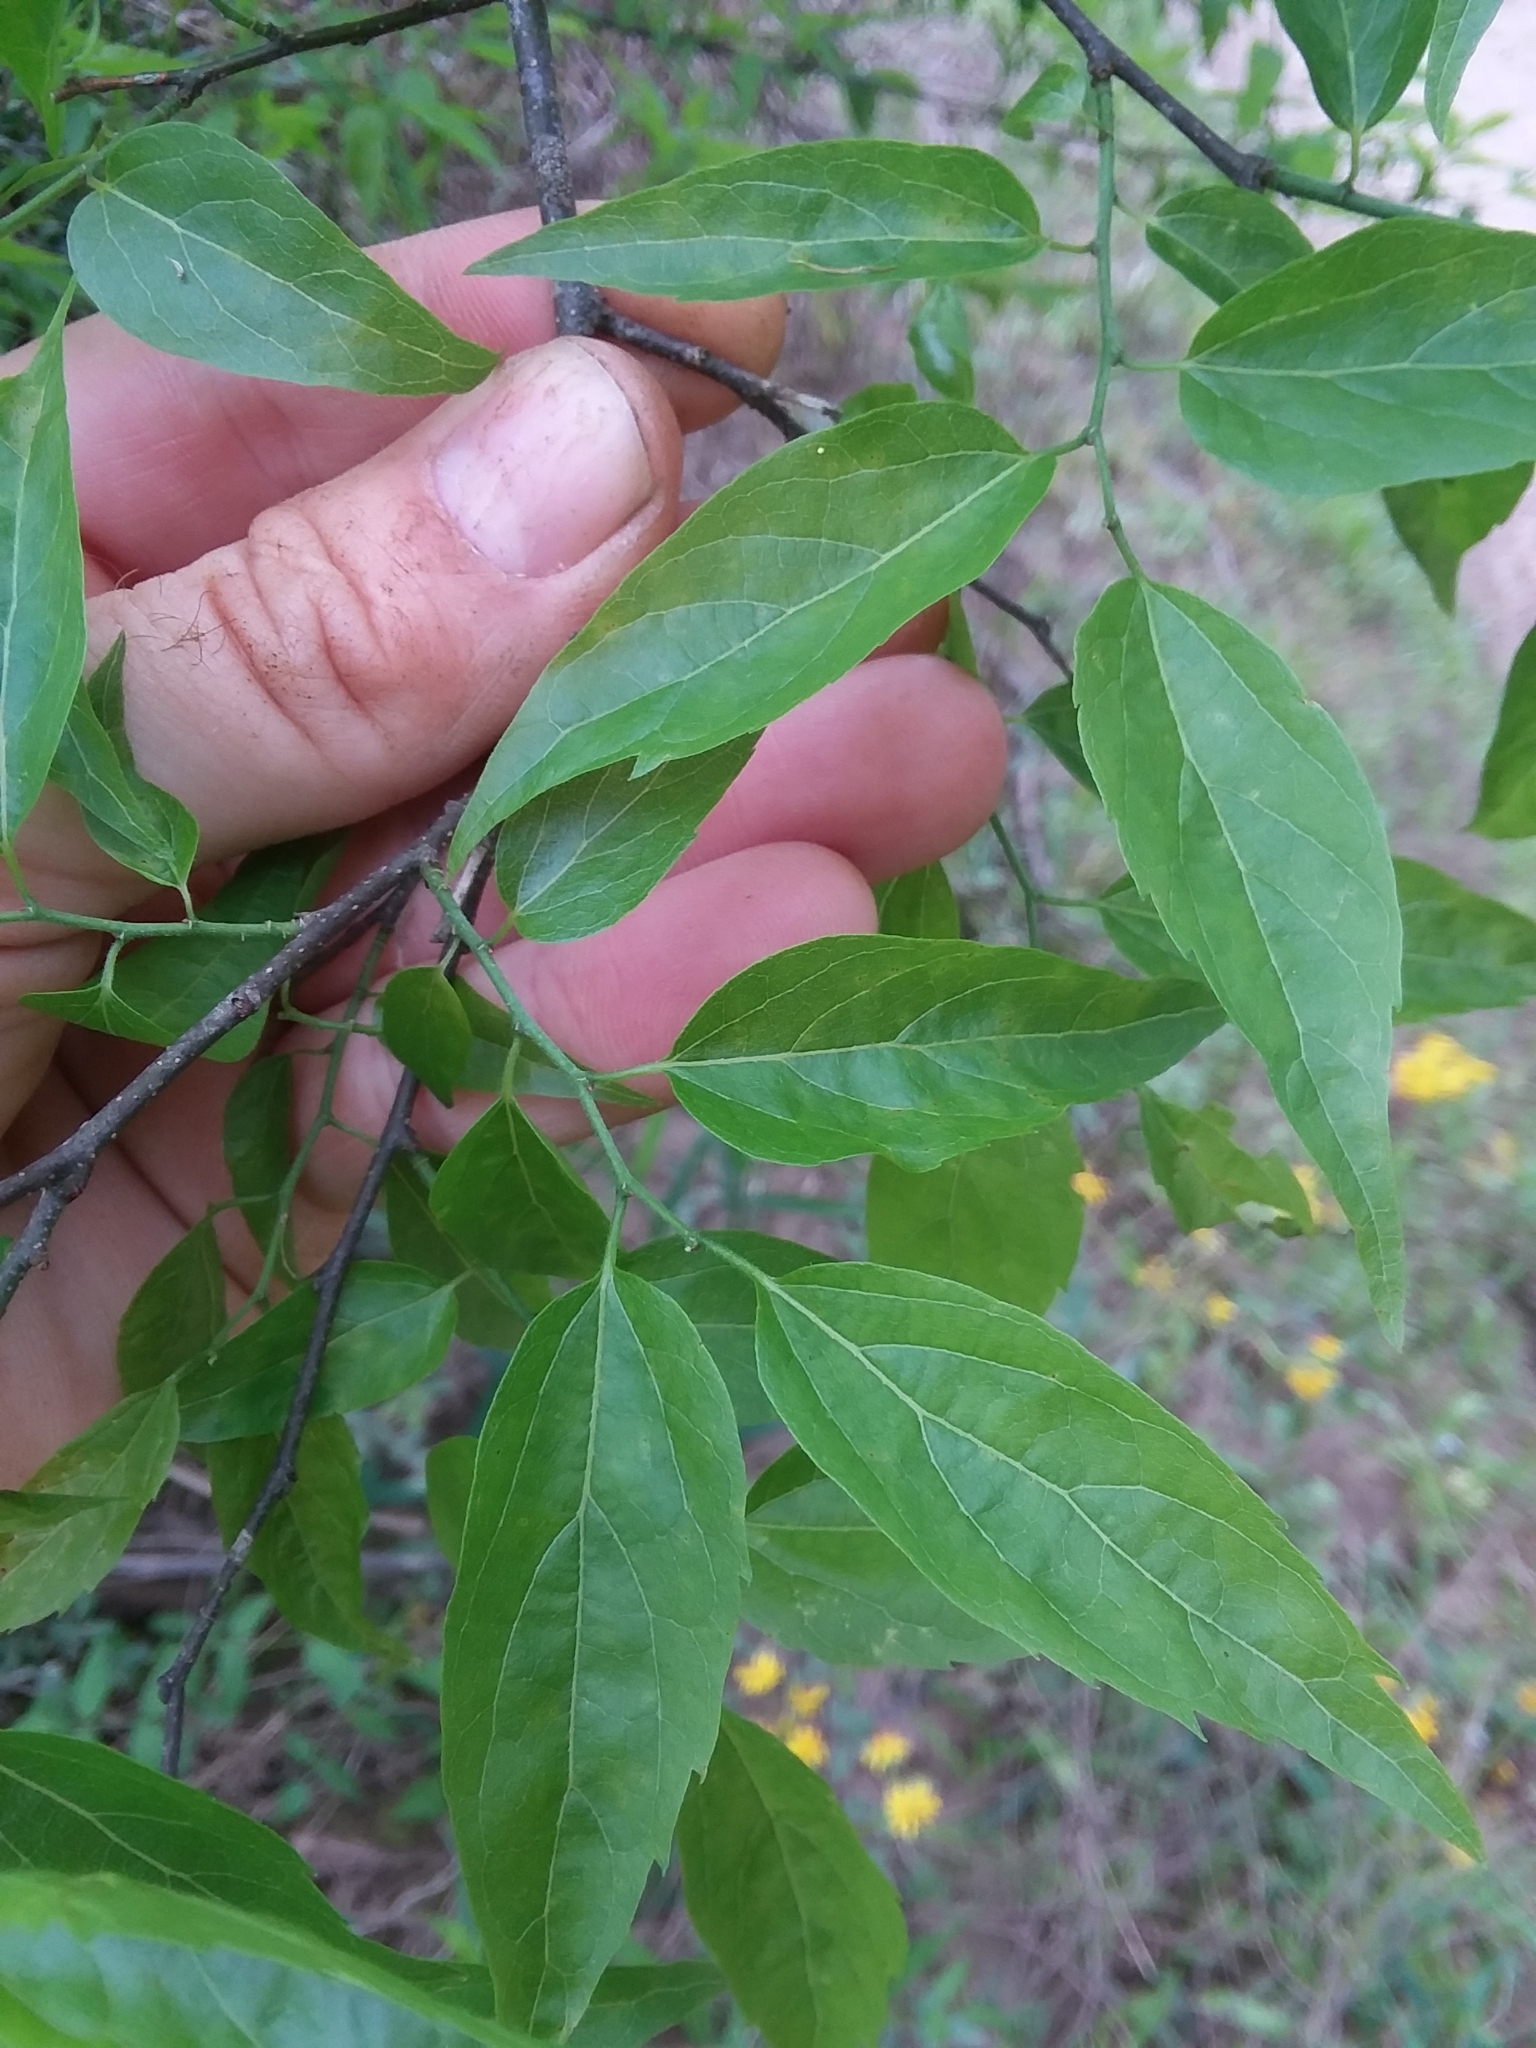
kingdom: Plantae
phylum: Tracheophyta
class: Magnoliopsida
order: Rosales
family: Cannabaceae
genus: Celtis
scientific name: Celtis laevigata
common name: Sugarberry
